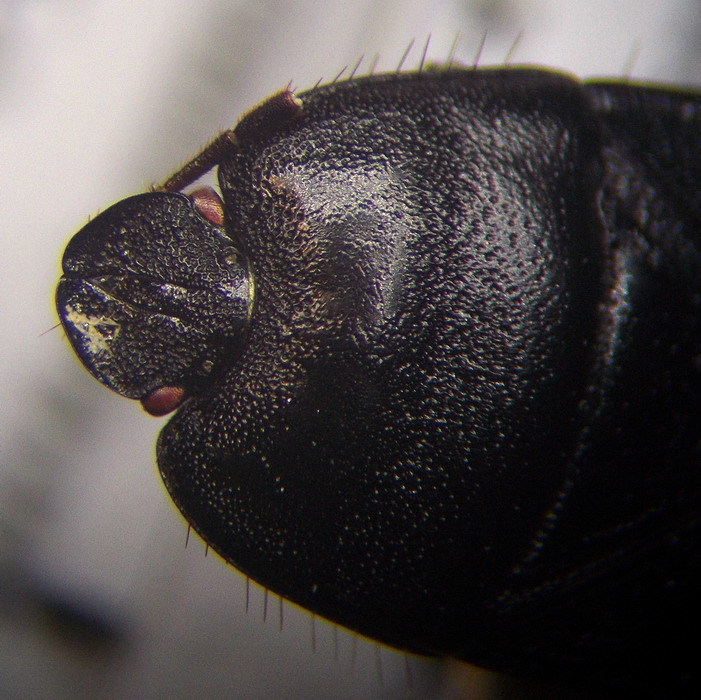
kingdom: Animalia
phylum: Arthropoda
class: Insecta
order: Hemiptera
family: Cydnidae
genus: Cydnus
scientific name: Cydnus aterrimus
